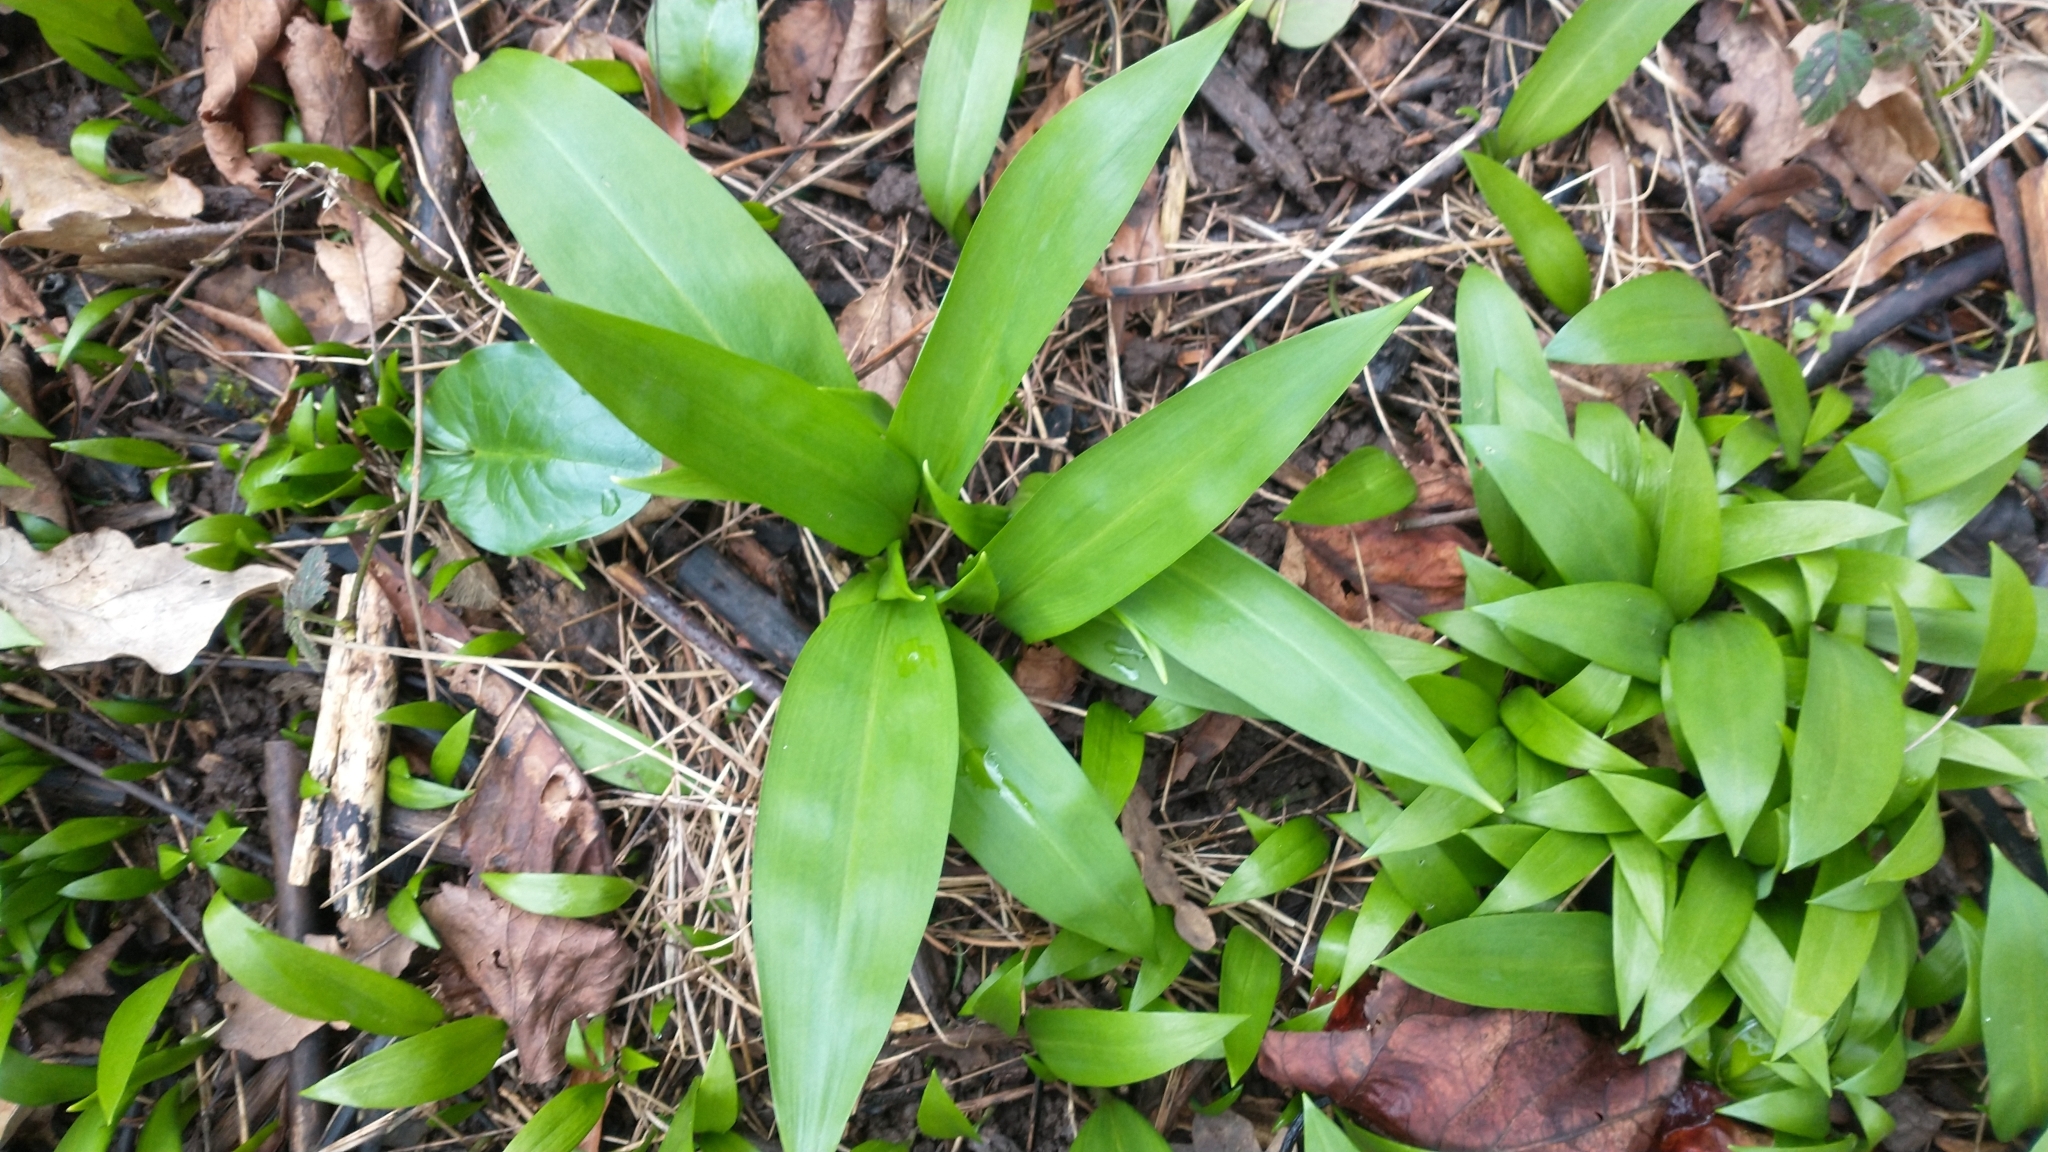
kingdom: Plantae
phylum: Tracheophyta
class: Liliopsida
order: Asparagales
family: Amaryllidaceae
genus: Allium
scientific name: Allium ursinum
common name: Ramsons
